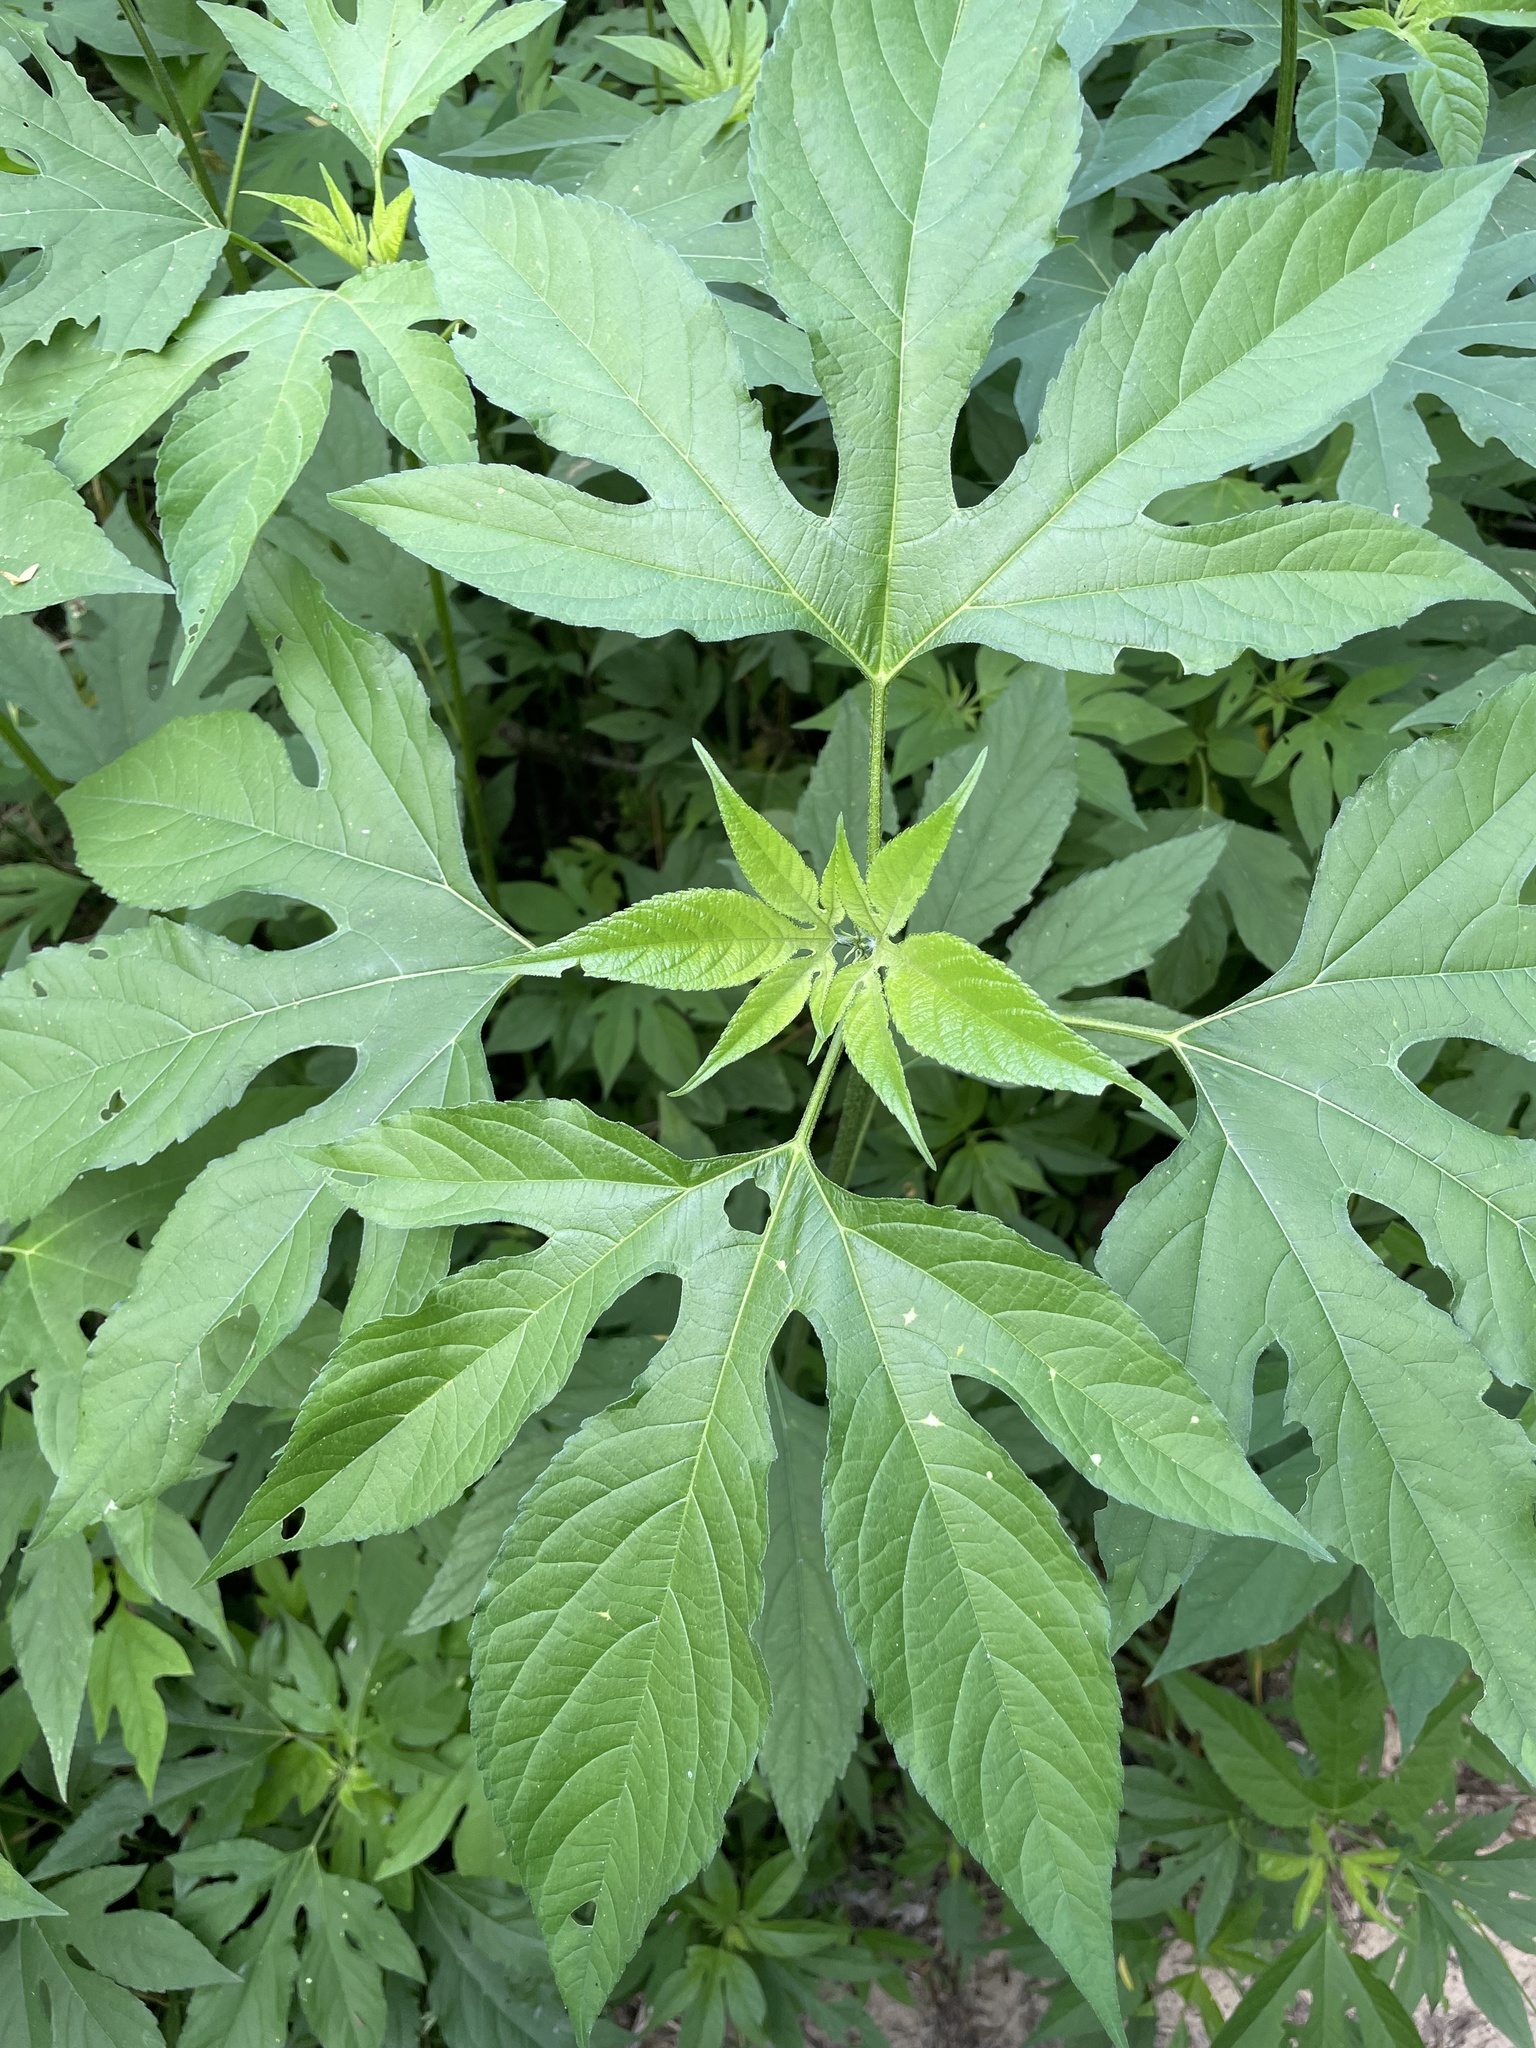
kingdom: Plantae
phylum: Tracheophyta
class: Magnoliopsida
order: Asterales
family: Asteraceae
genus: Ambrosia
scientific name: Ambrosia trifida
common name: Giant ragweed
